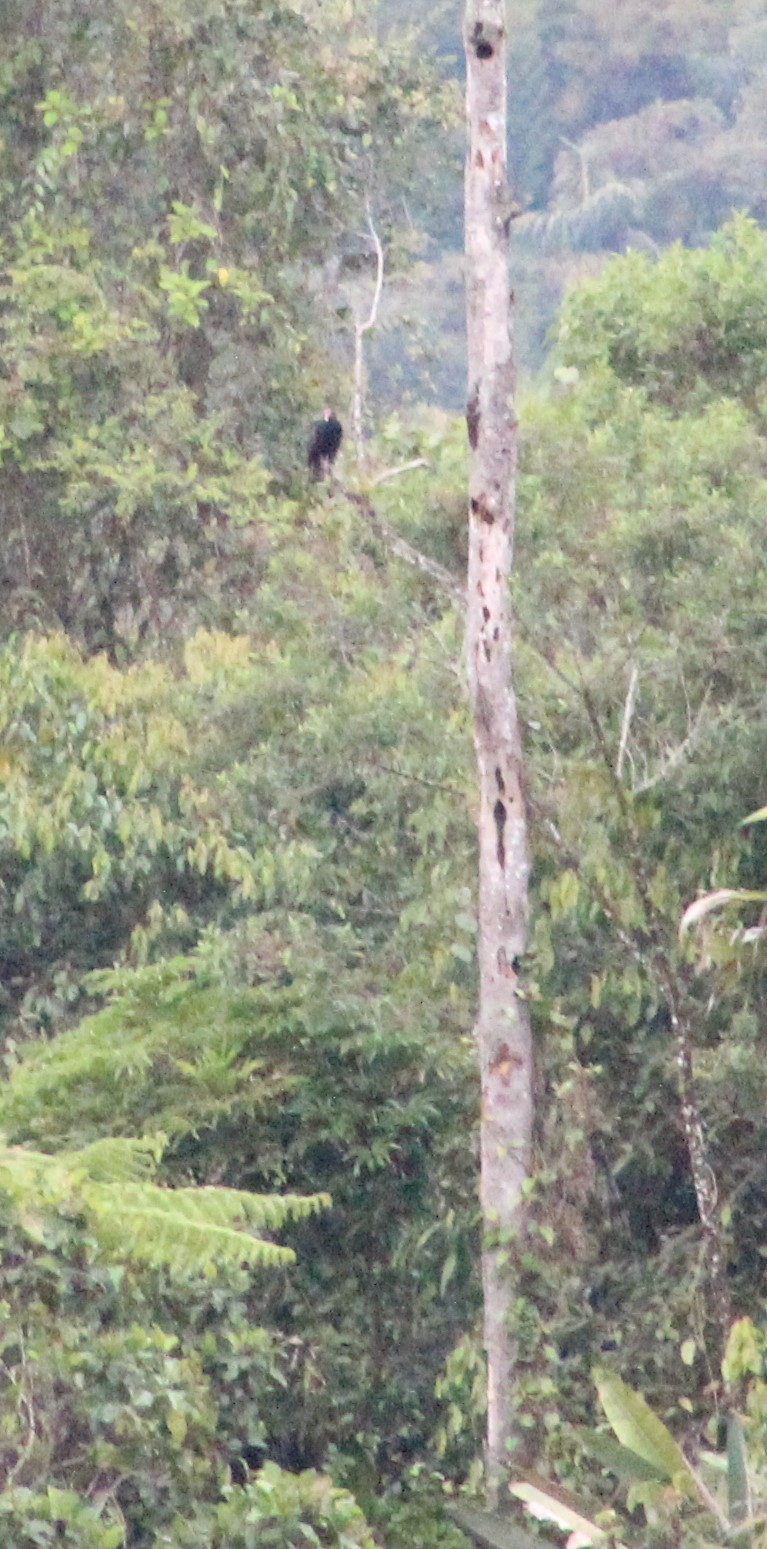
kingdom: Animalia
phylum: Chordata
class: Aves
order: Accipitriformes
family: Cathartidae
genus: Cathartes
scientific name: Cathartes aura
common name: Turkey vulture
